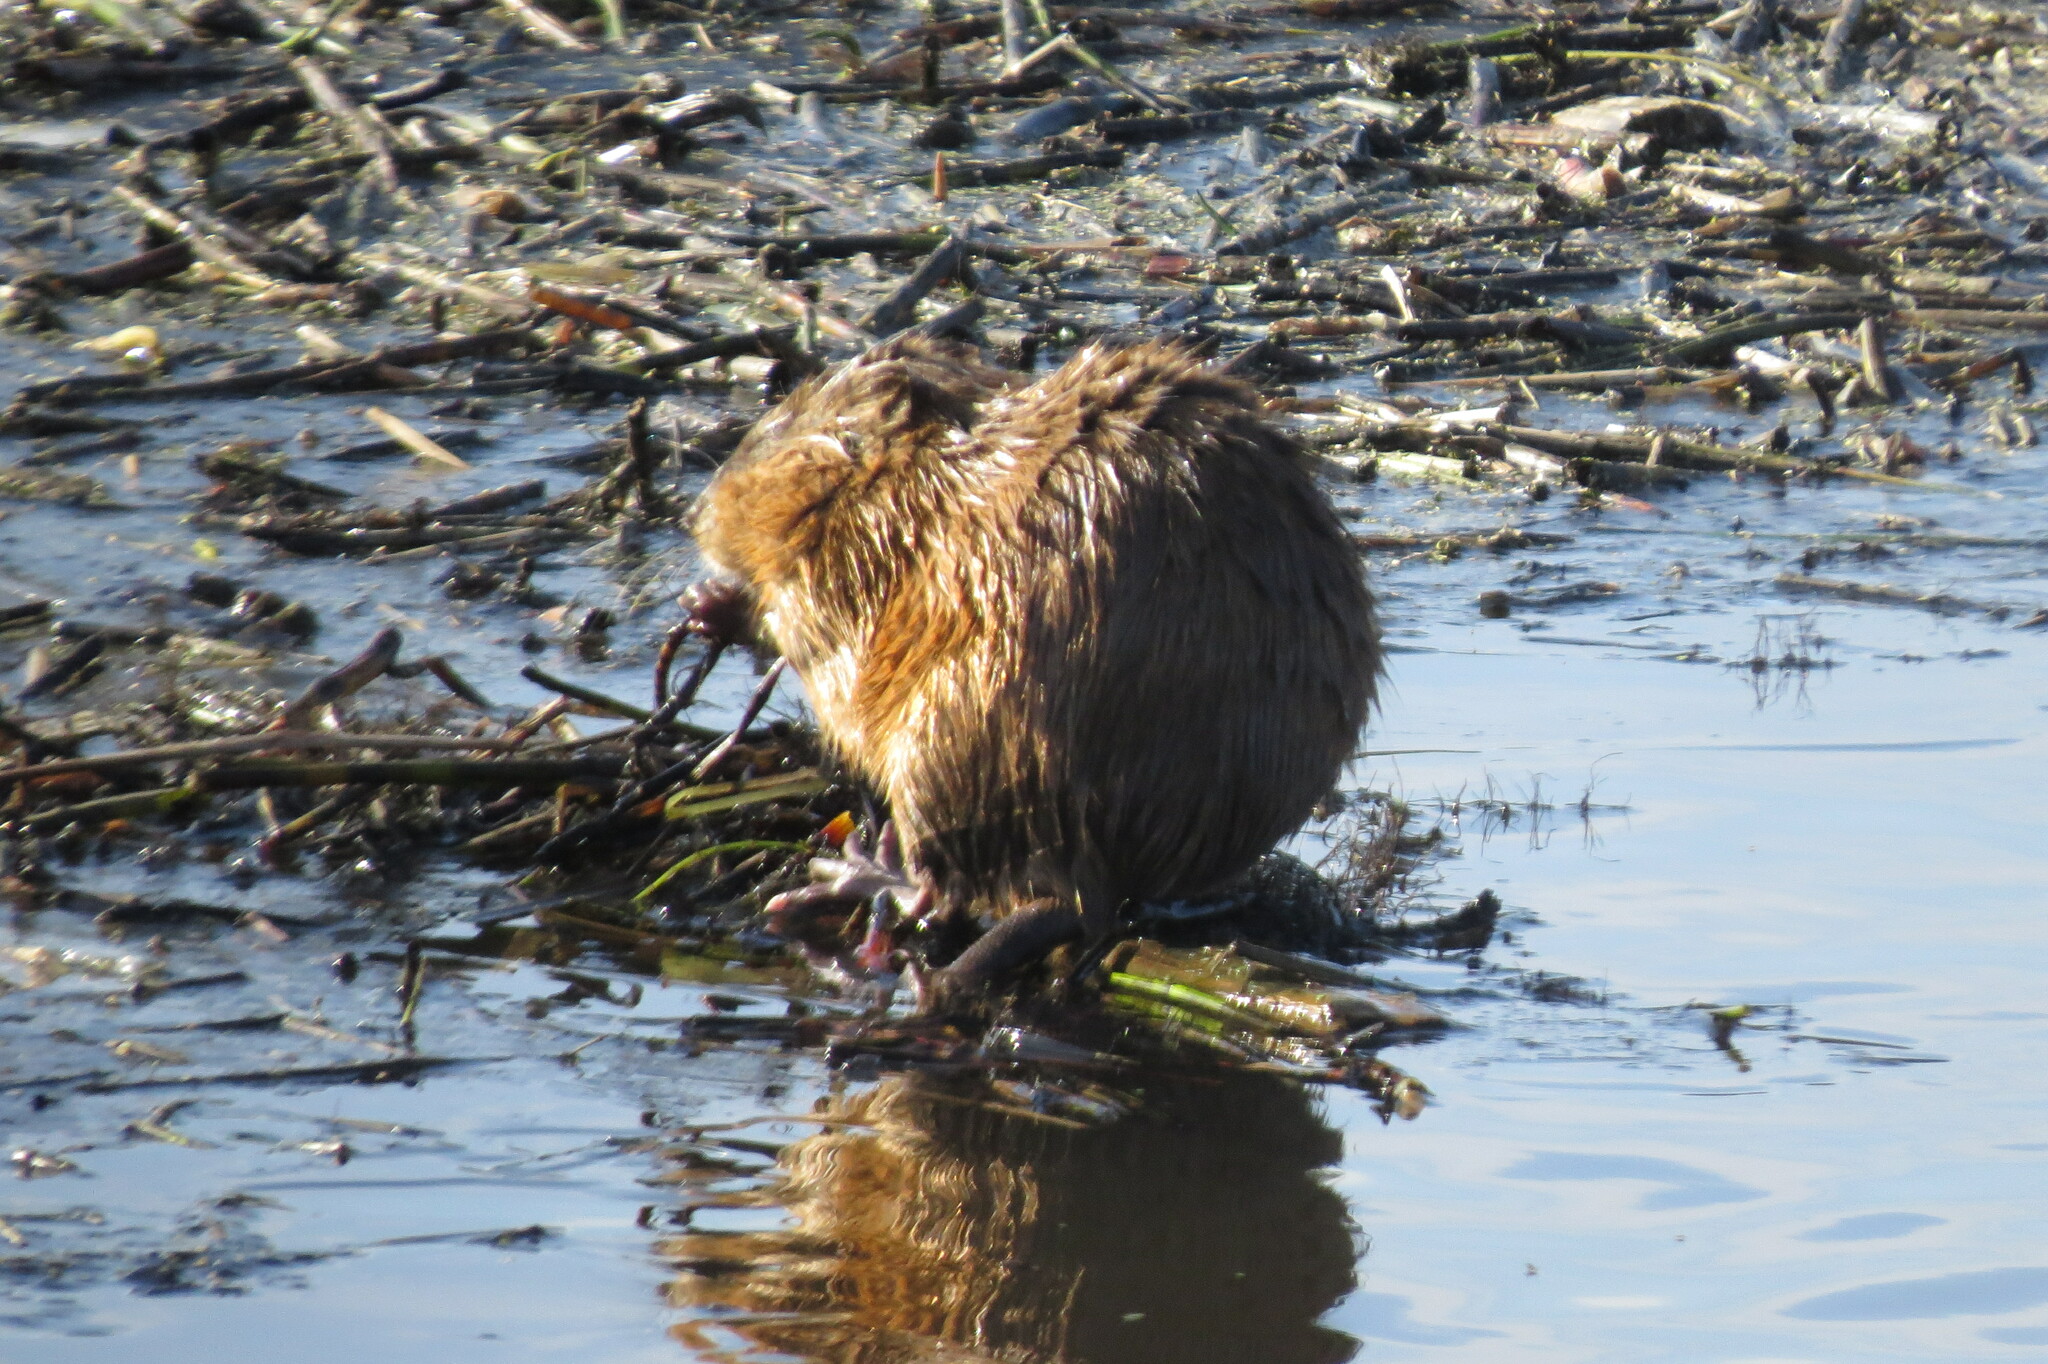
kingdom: Animalia
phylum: Chordata
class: Mammalia
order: Rodentia
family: Cricetidae
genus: Ondatra
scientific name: Ondatra zibethicus
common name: Muskrat
